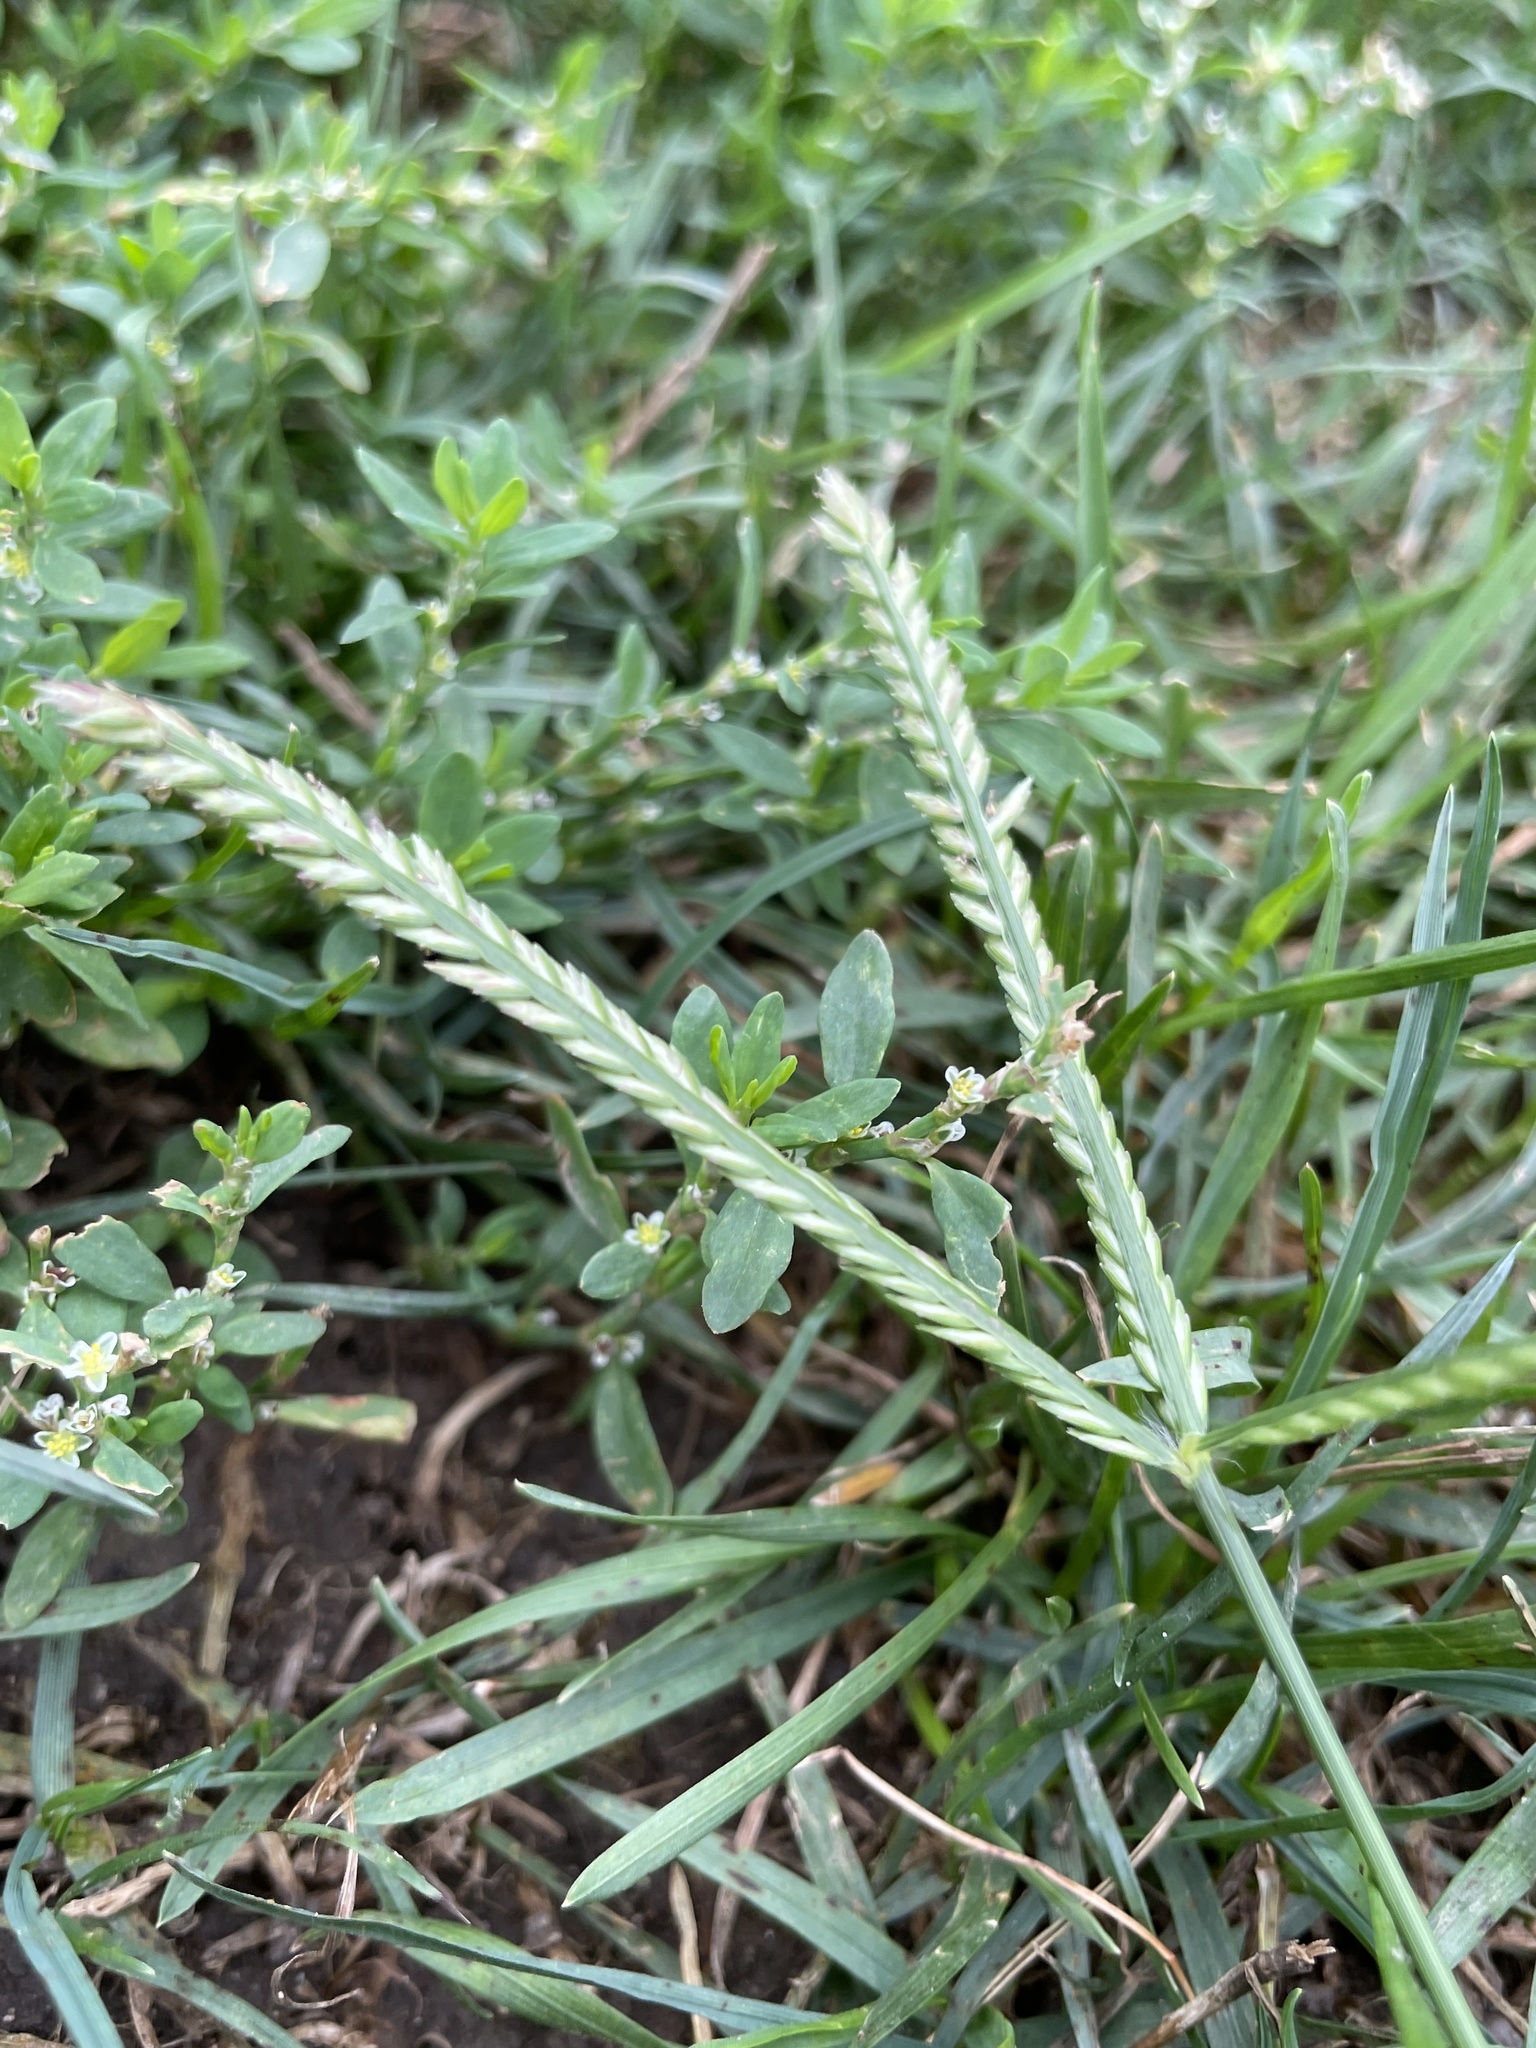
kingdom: Plantae
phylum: Tracheophyta
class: Liliopsida
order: Poales
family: Poaceae
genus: Eleusine
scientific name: Eleusine indica
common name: Yard-grass
